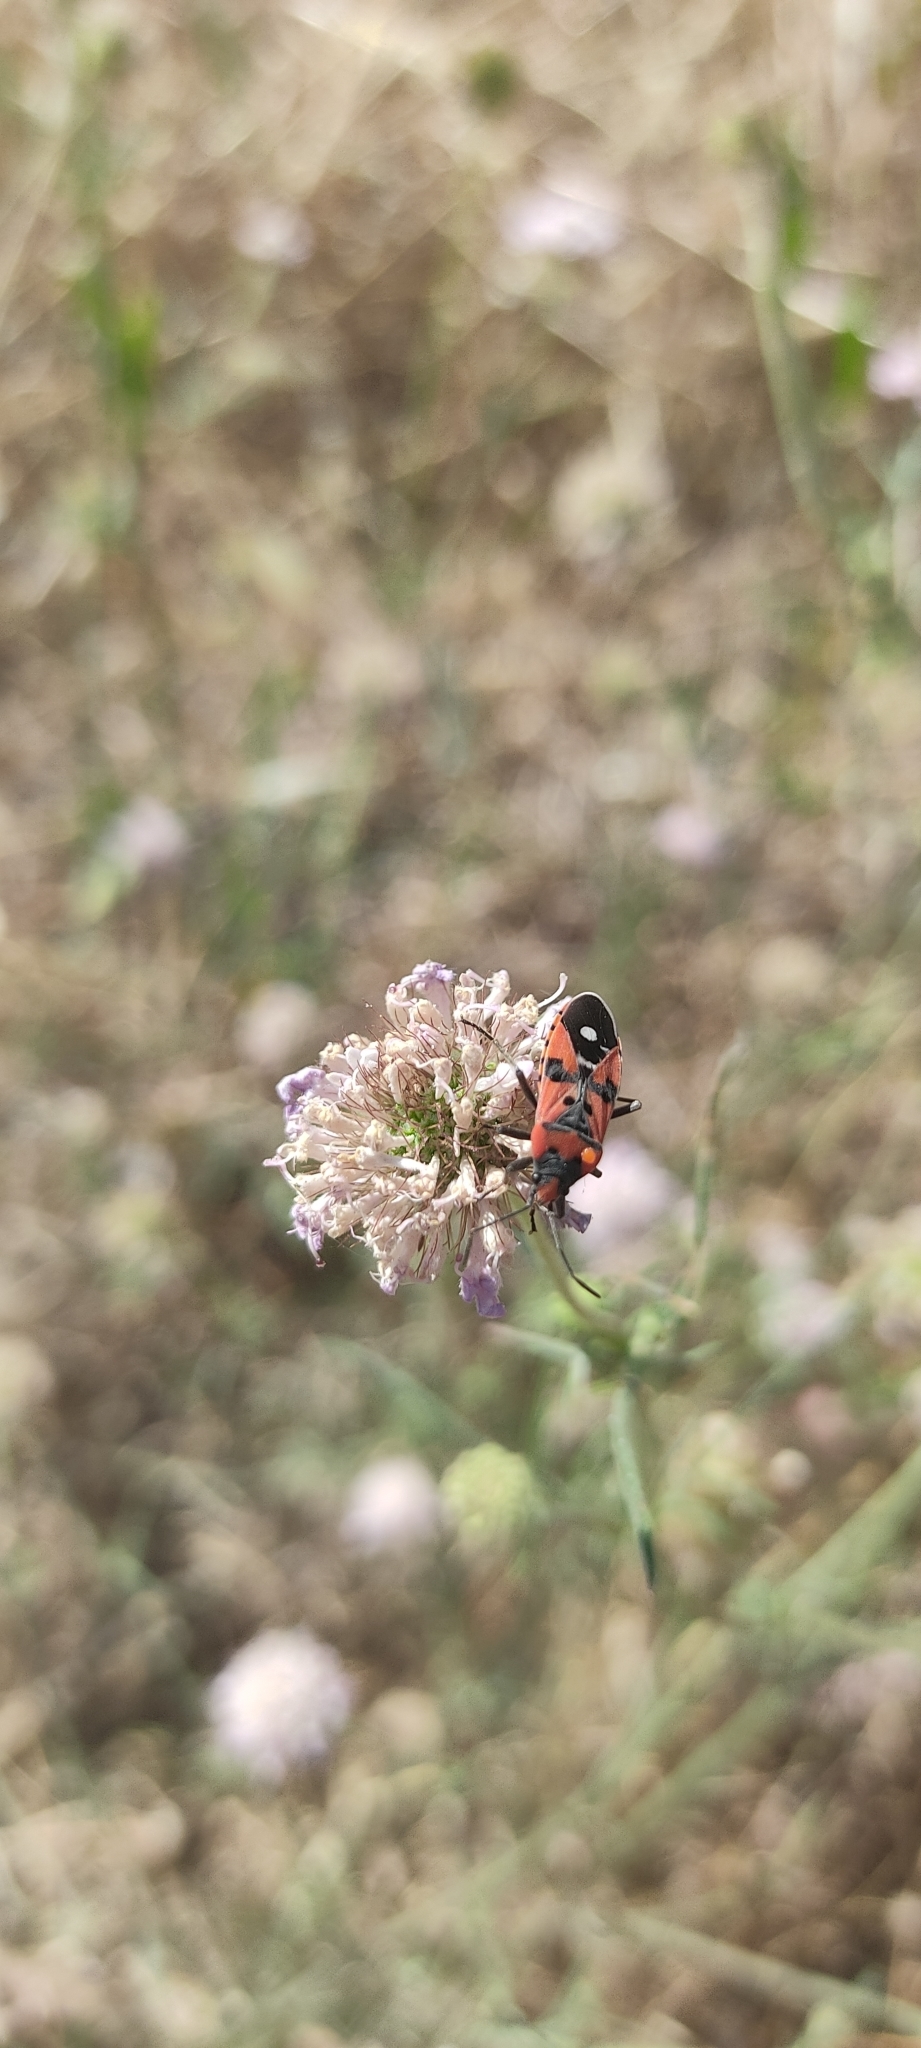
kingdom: Animalia
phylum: Arthropoda
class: Insecta
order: Hemiptera
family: Lygaeidae
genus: Lygaeus
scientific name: Lygaeus equestris
